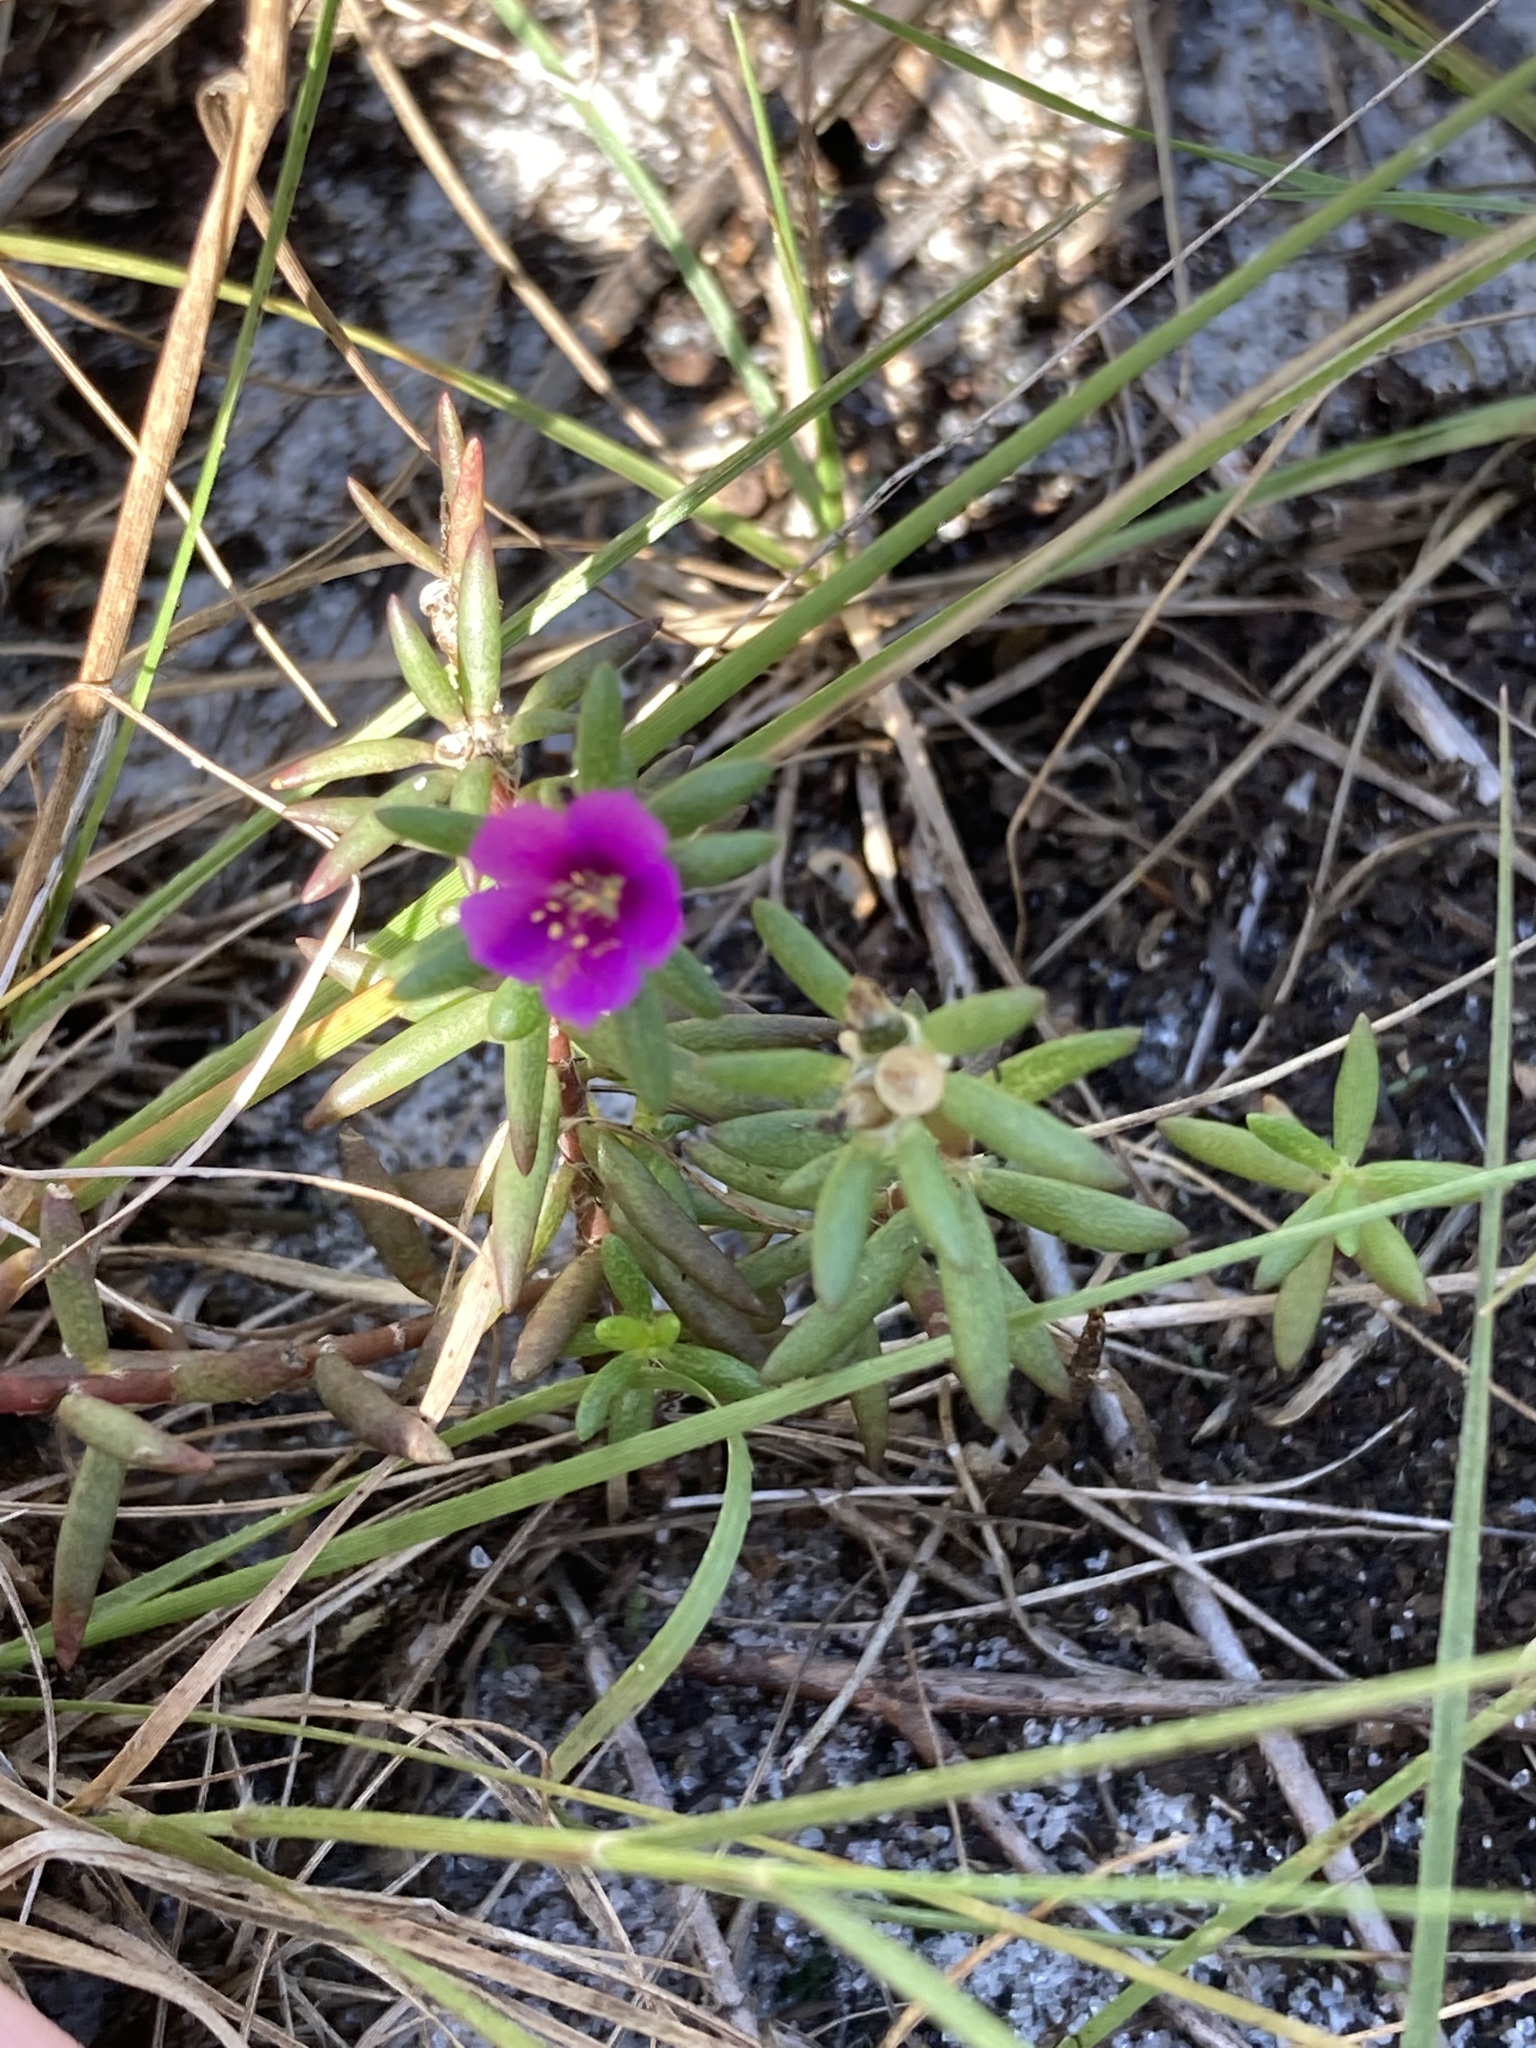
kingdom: Plantae
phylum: Tracheophyta
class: Magnoliopsida
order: Caryophyllales
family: Portulacaceae
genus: Portulaca
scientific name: Portulaca pilosa
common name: Kiss me quick
